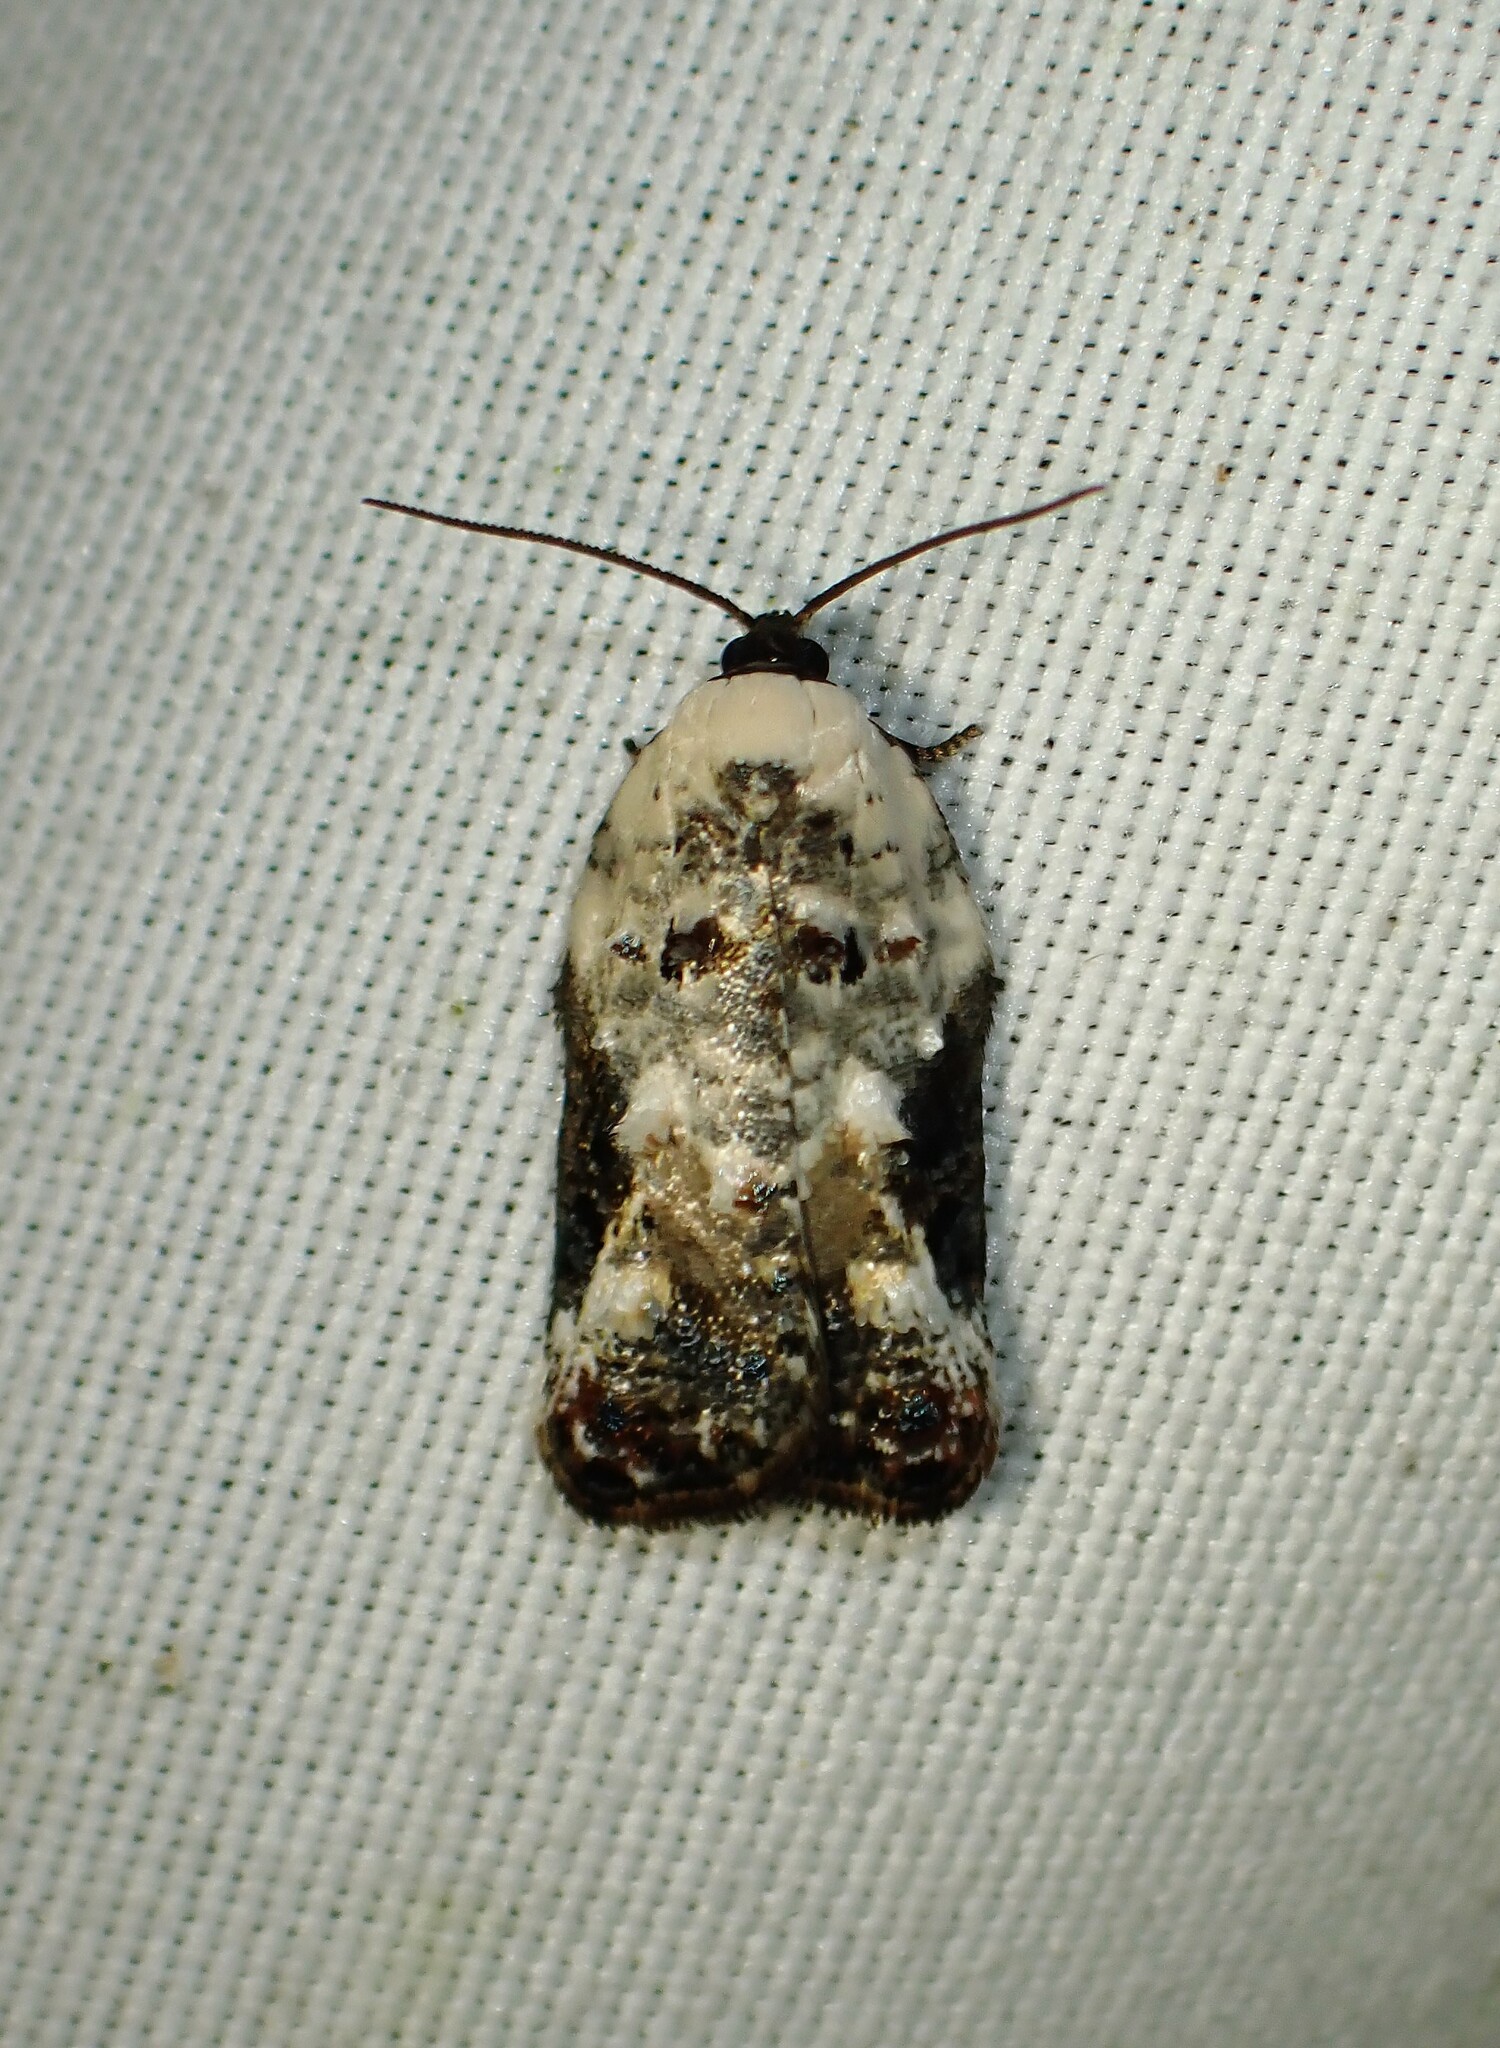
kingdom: Animalia
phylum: Arthropoda
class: Insecta
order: Lepidoptera
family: Tortricidae
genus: Acleris
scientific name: Acleris nivisellana
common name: Snowy-shouldered acleris moth
